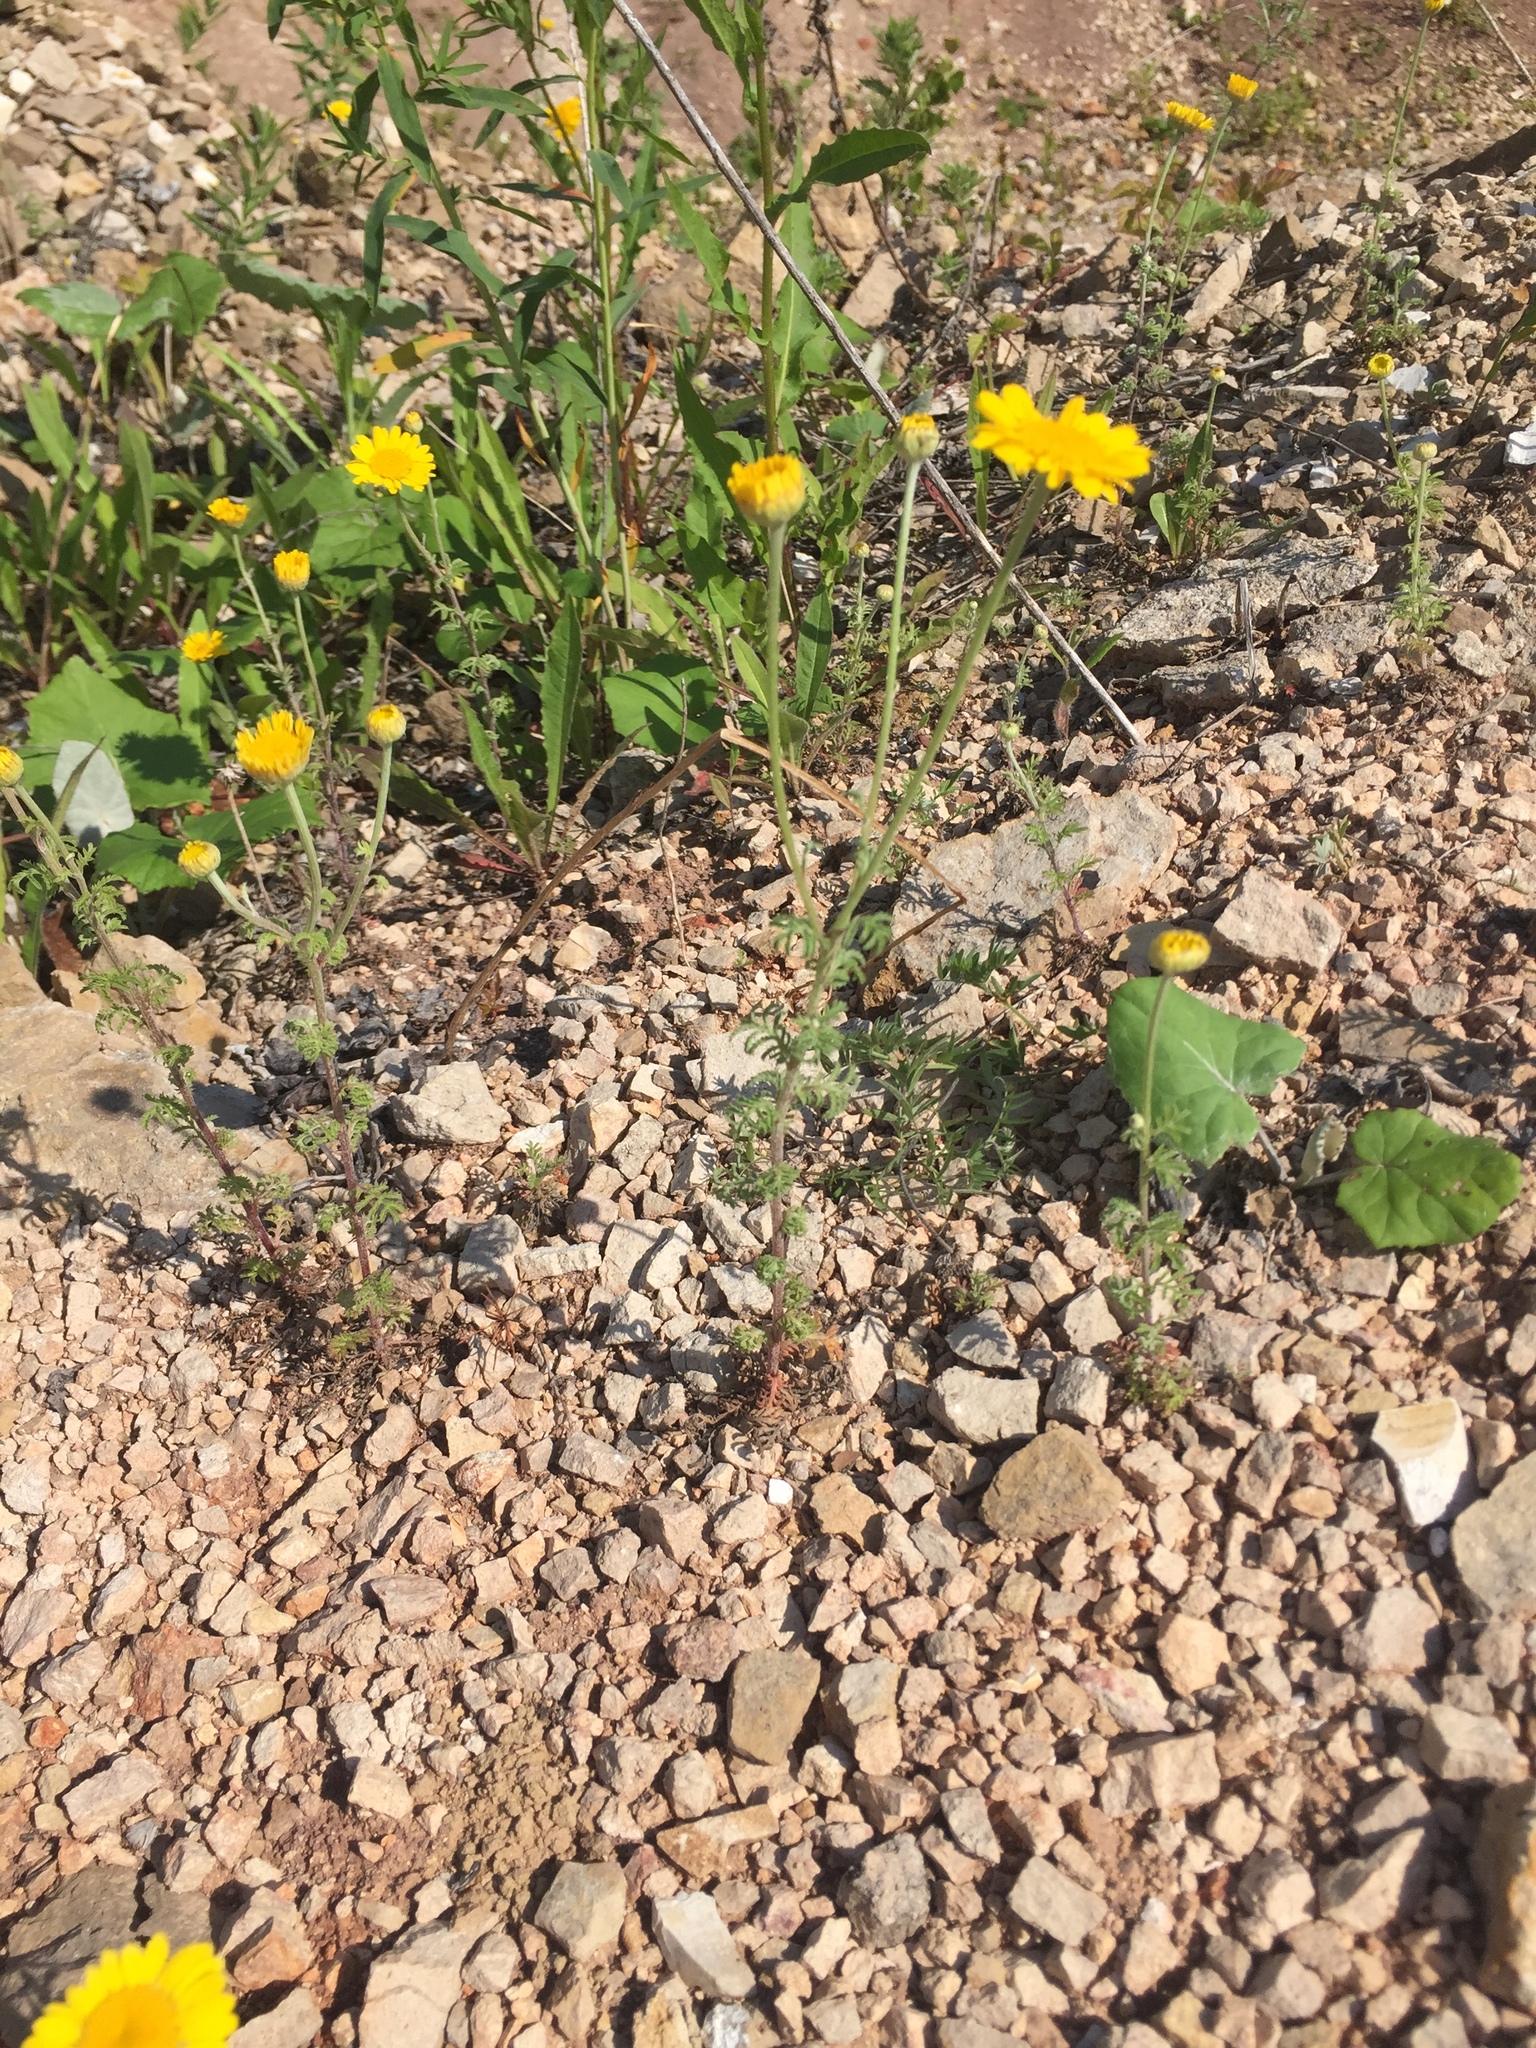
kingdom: Plantae
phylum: Tracheophyta
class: Magnoliopsida
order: Asterales
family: Asteraceae
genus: Cota
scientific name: Cota tinctoria
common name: Golden chamomile
